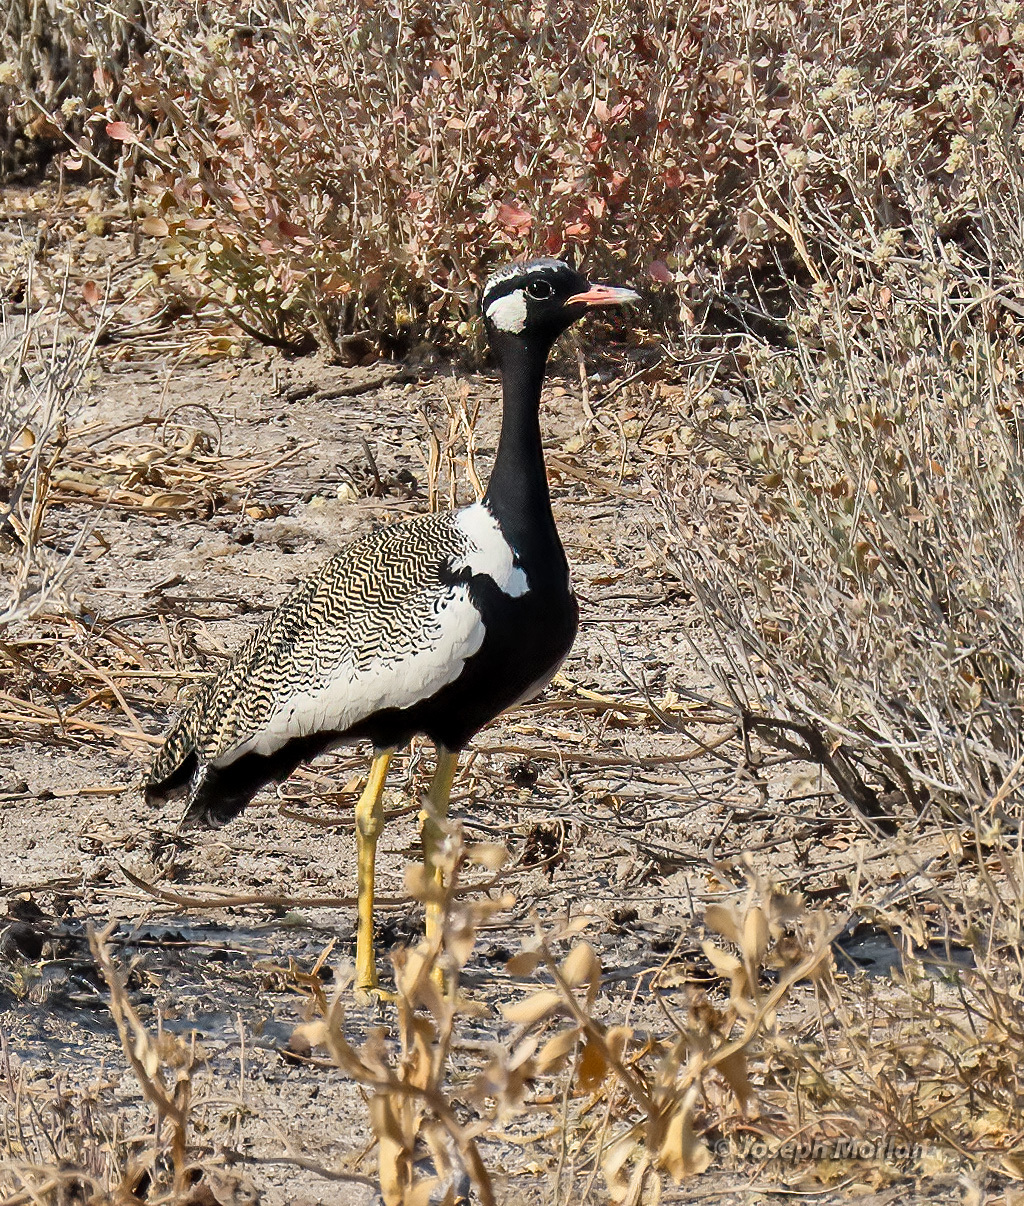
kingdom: Animalia
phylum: Chordata
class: Aves
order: Otidiformes
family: Otididae
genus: Afrotis
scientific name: Afrotis afraoides
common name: Northern black korhaan
